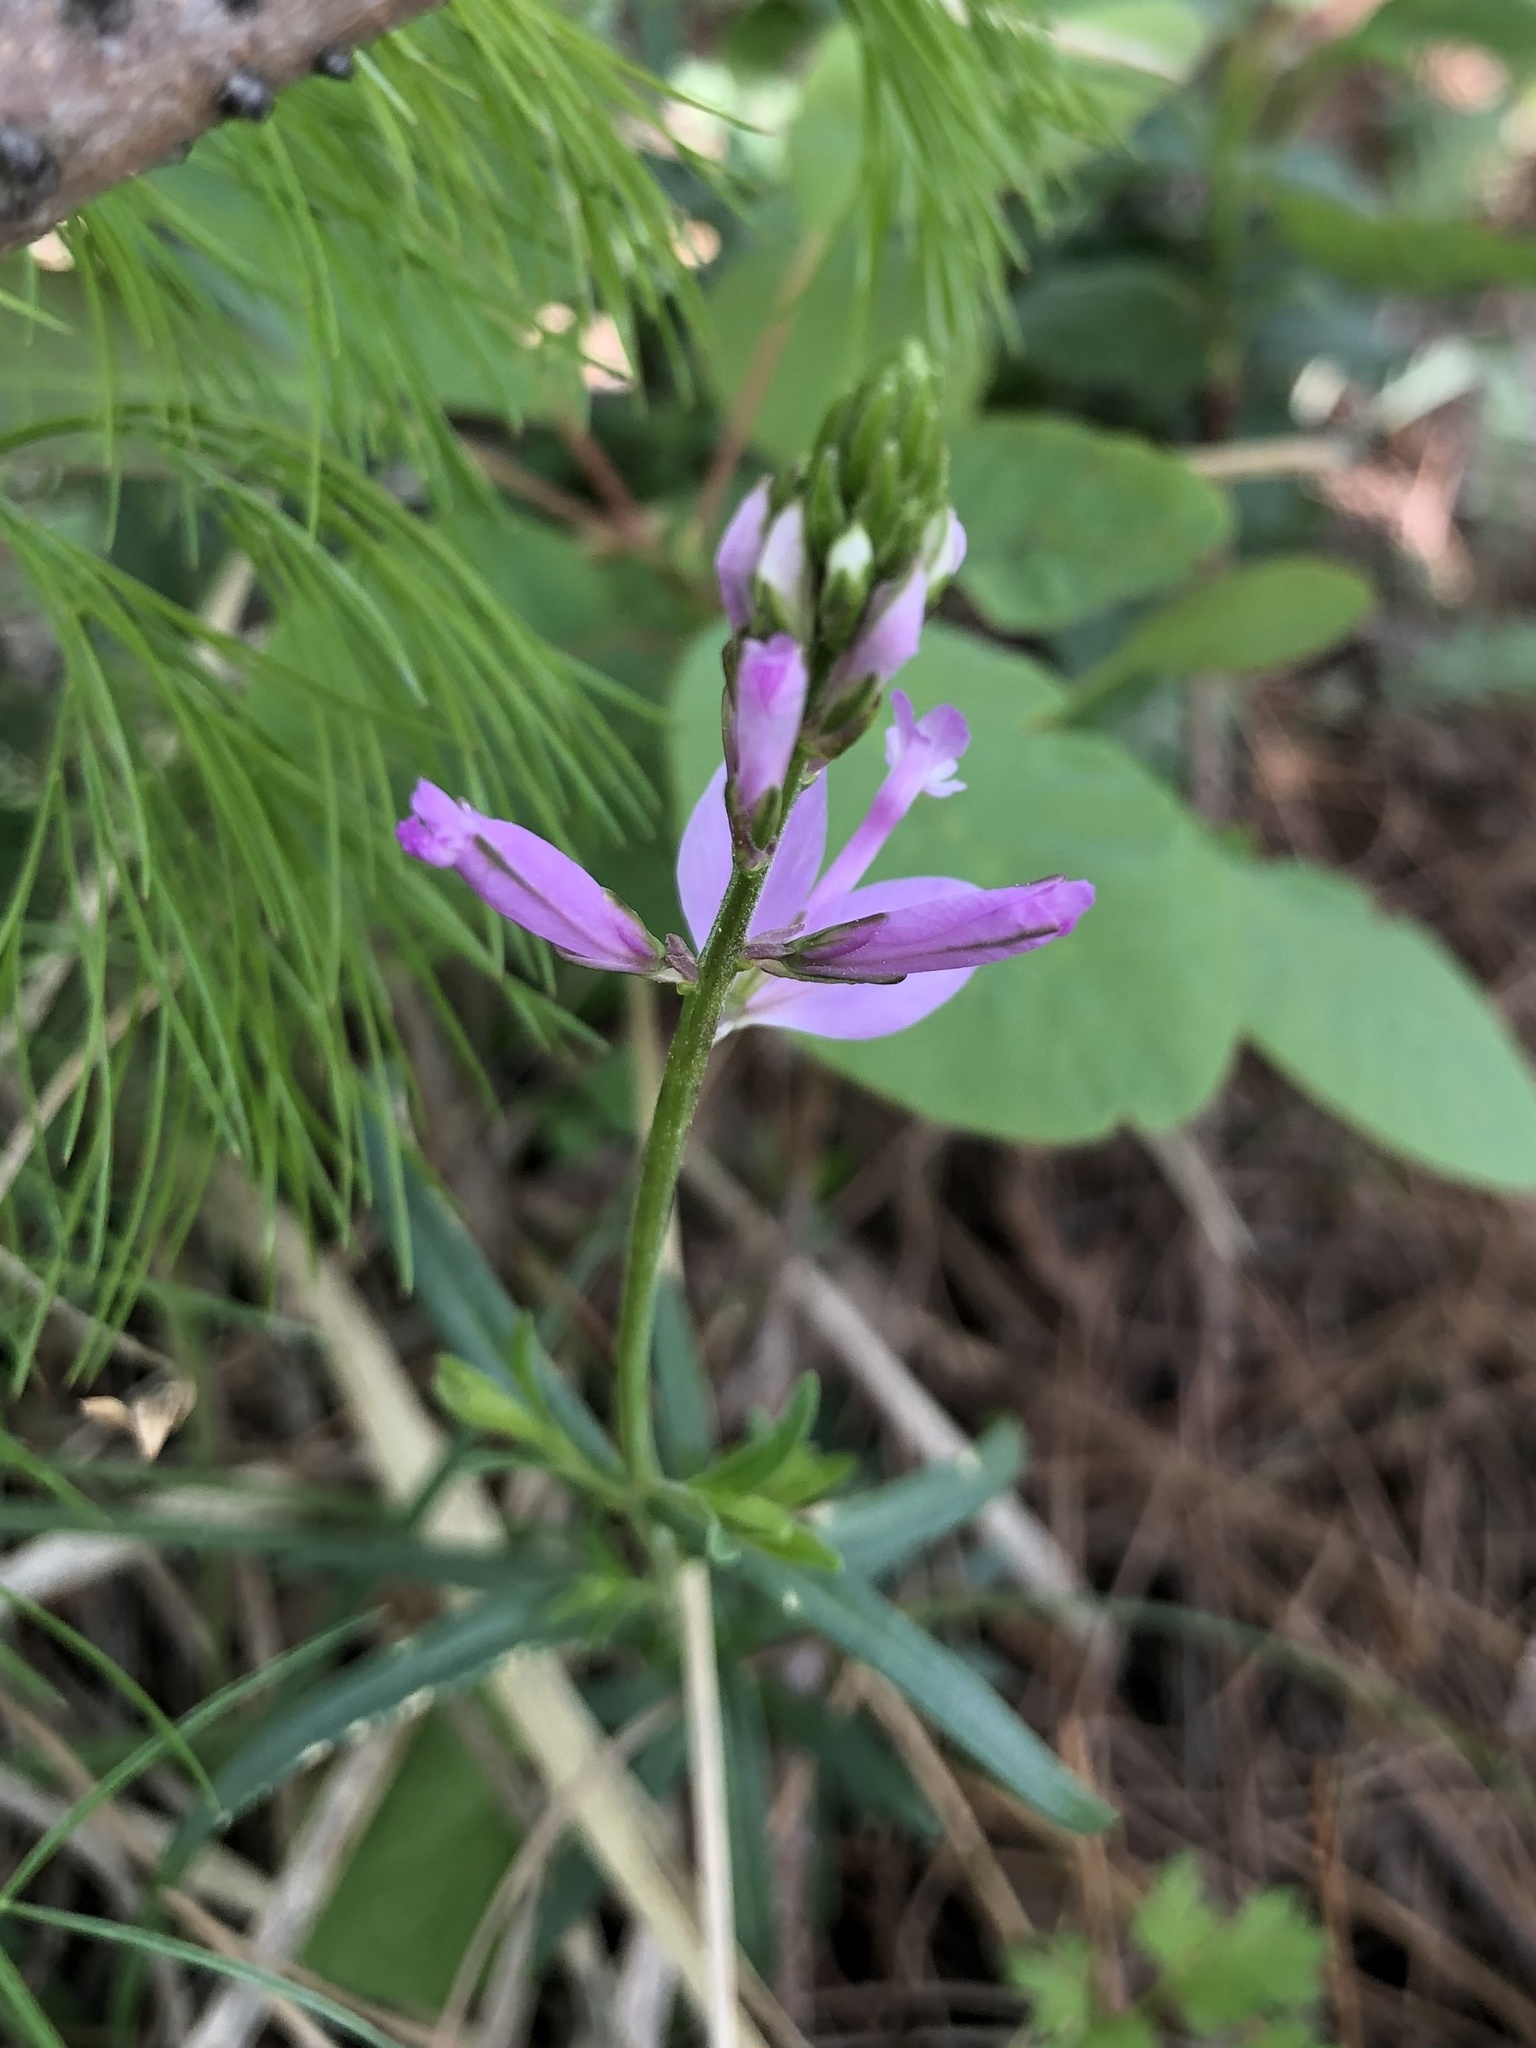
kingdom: Plantae
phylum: Tracheophyta
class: Magnoliopsida
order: Fabales
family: Polygalaceae
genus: Polygala
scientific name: Polygala major
